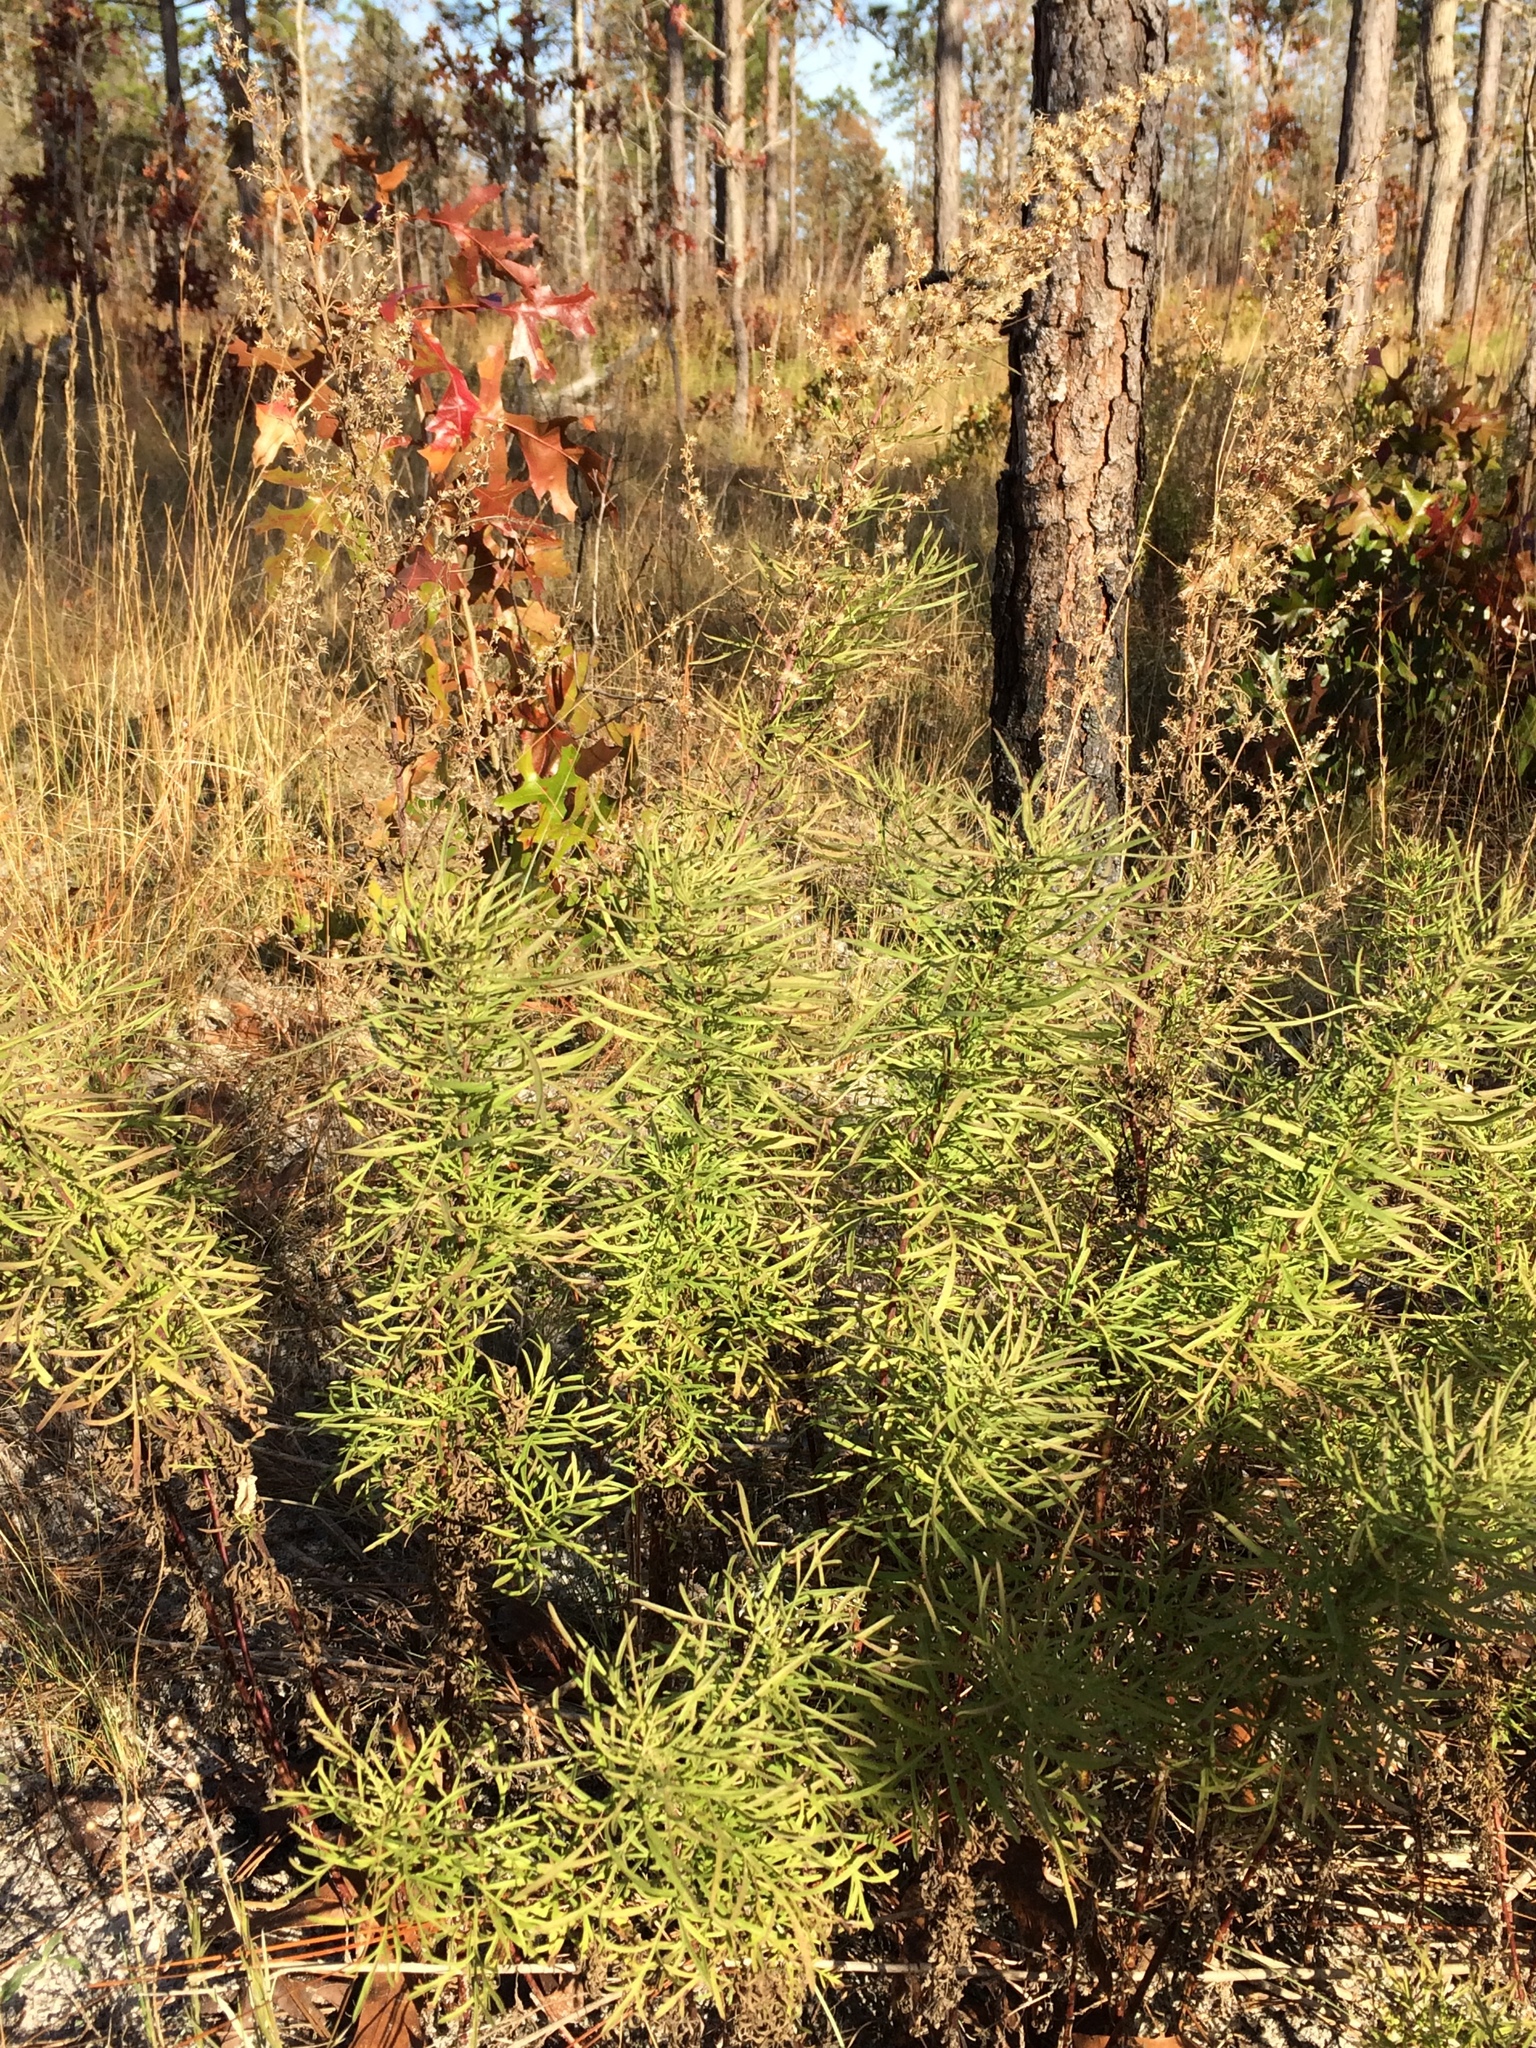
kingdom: Plantae
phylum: Tracheophyta
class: Magnoliopsida
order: Asterales
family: Asteraceae
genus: Eupatorium
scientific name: Eupatorium compositifolium
